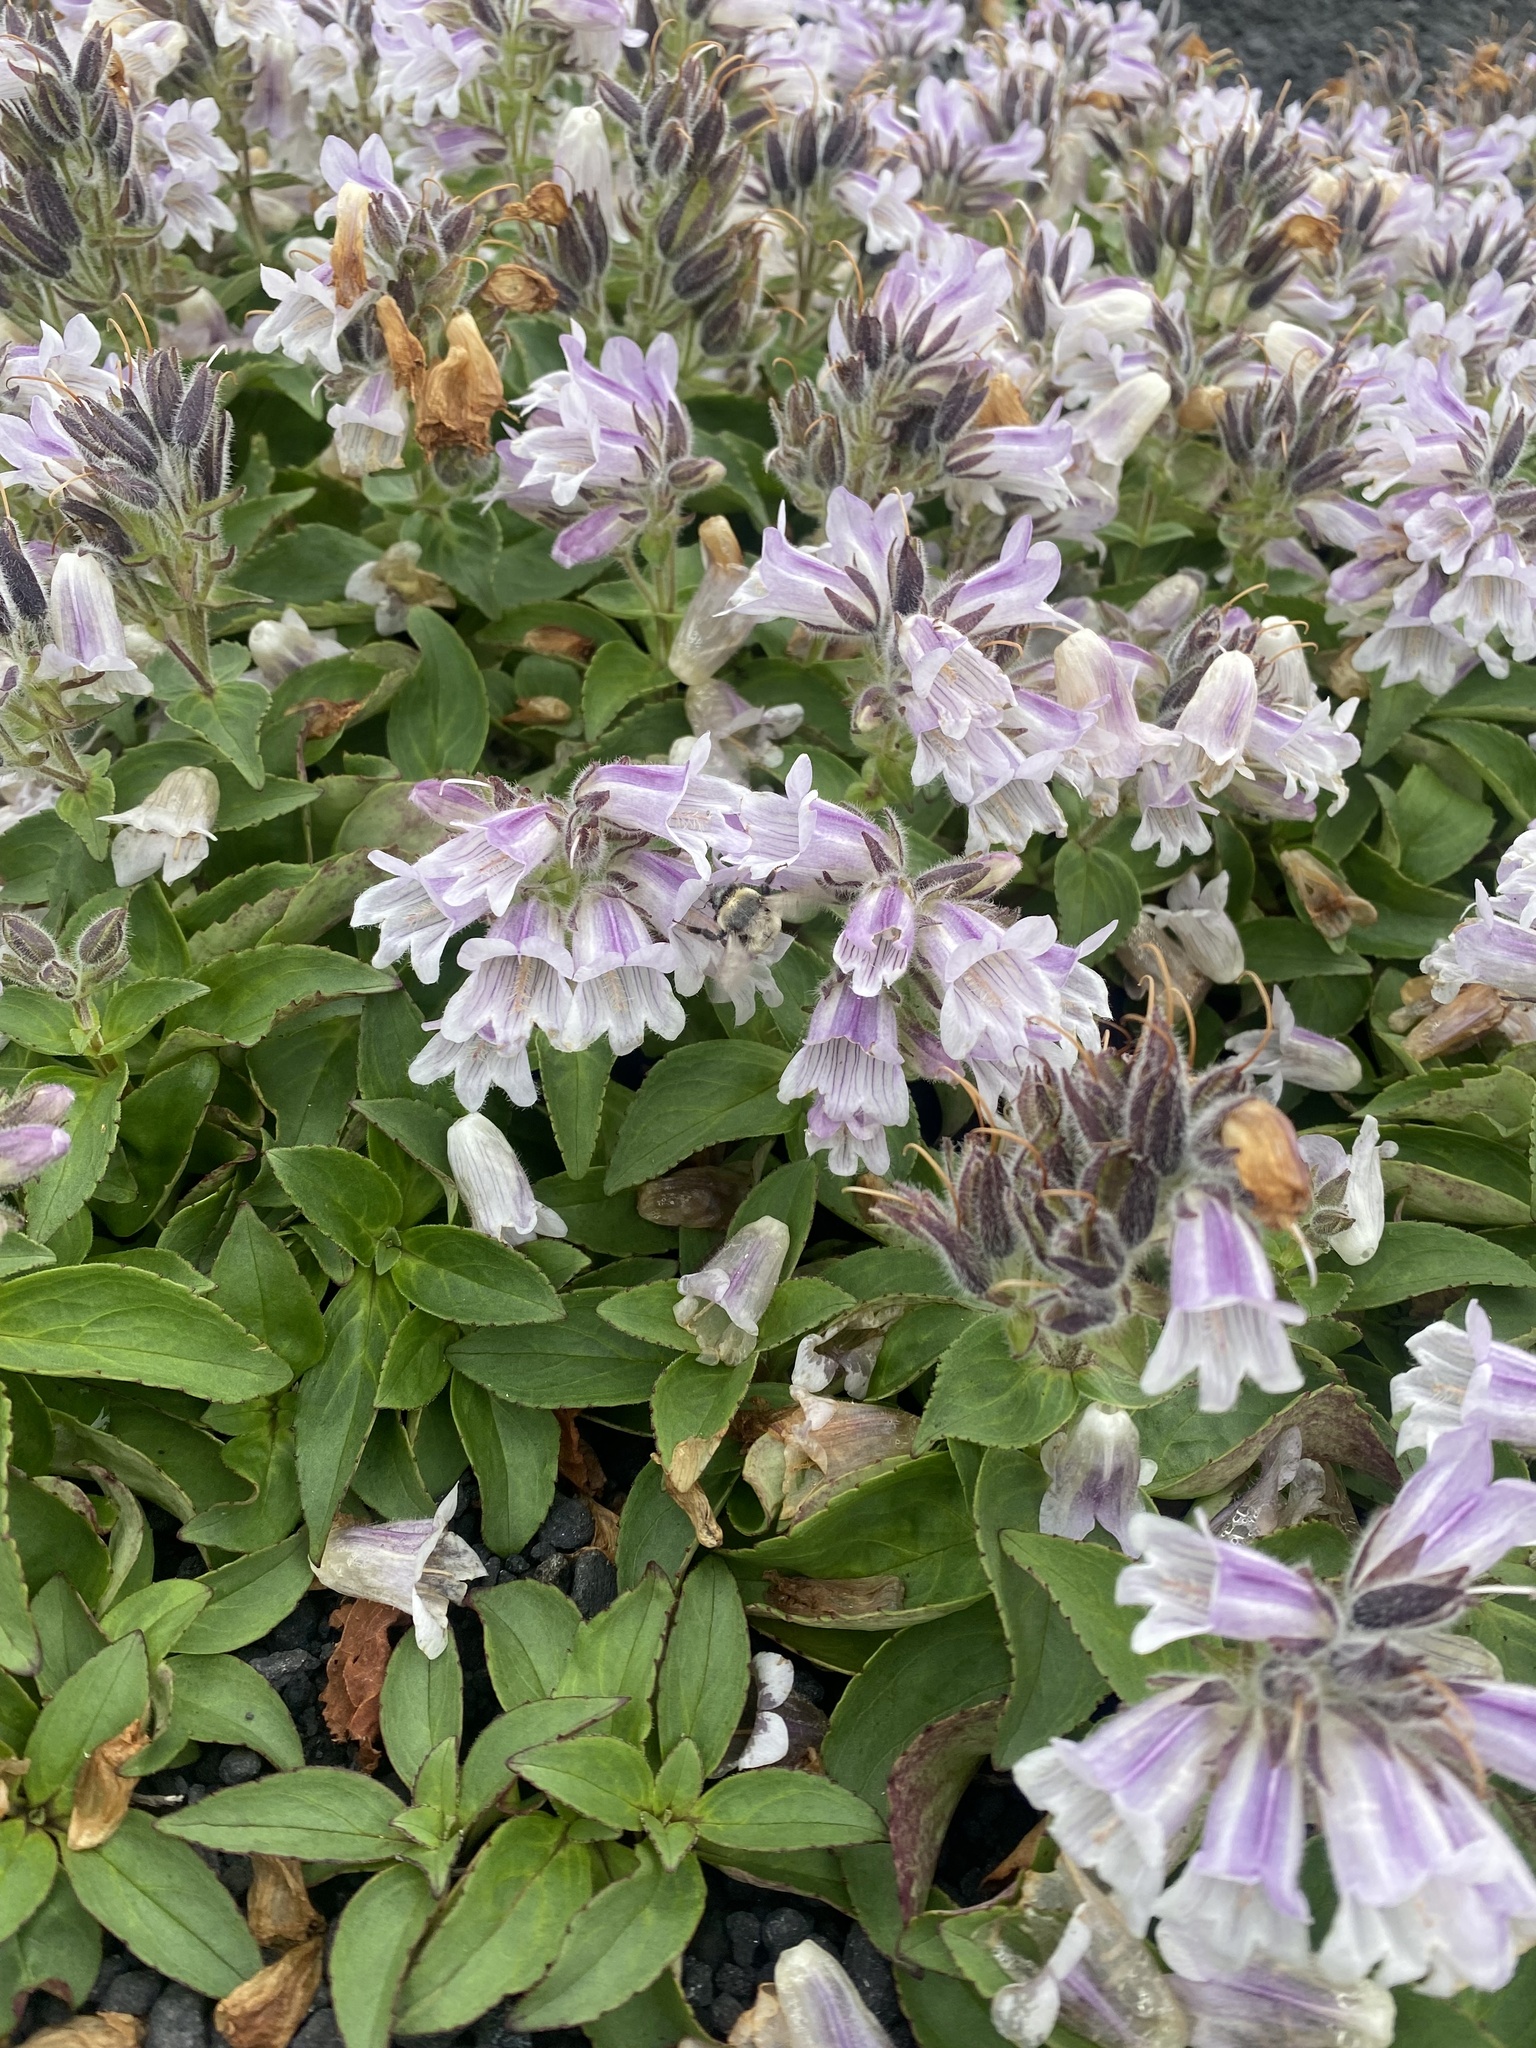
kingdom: Plantae
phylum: Tracheophyta
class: Magnoliopsida
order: Lamiales
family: Plantaginaceae
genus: Pennellianthus
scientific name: Pennellianthus frutescens
